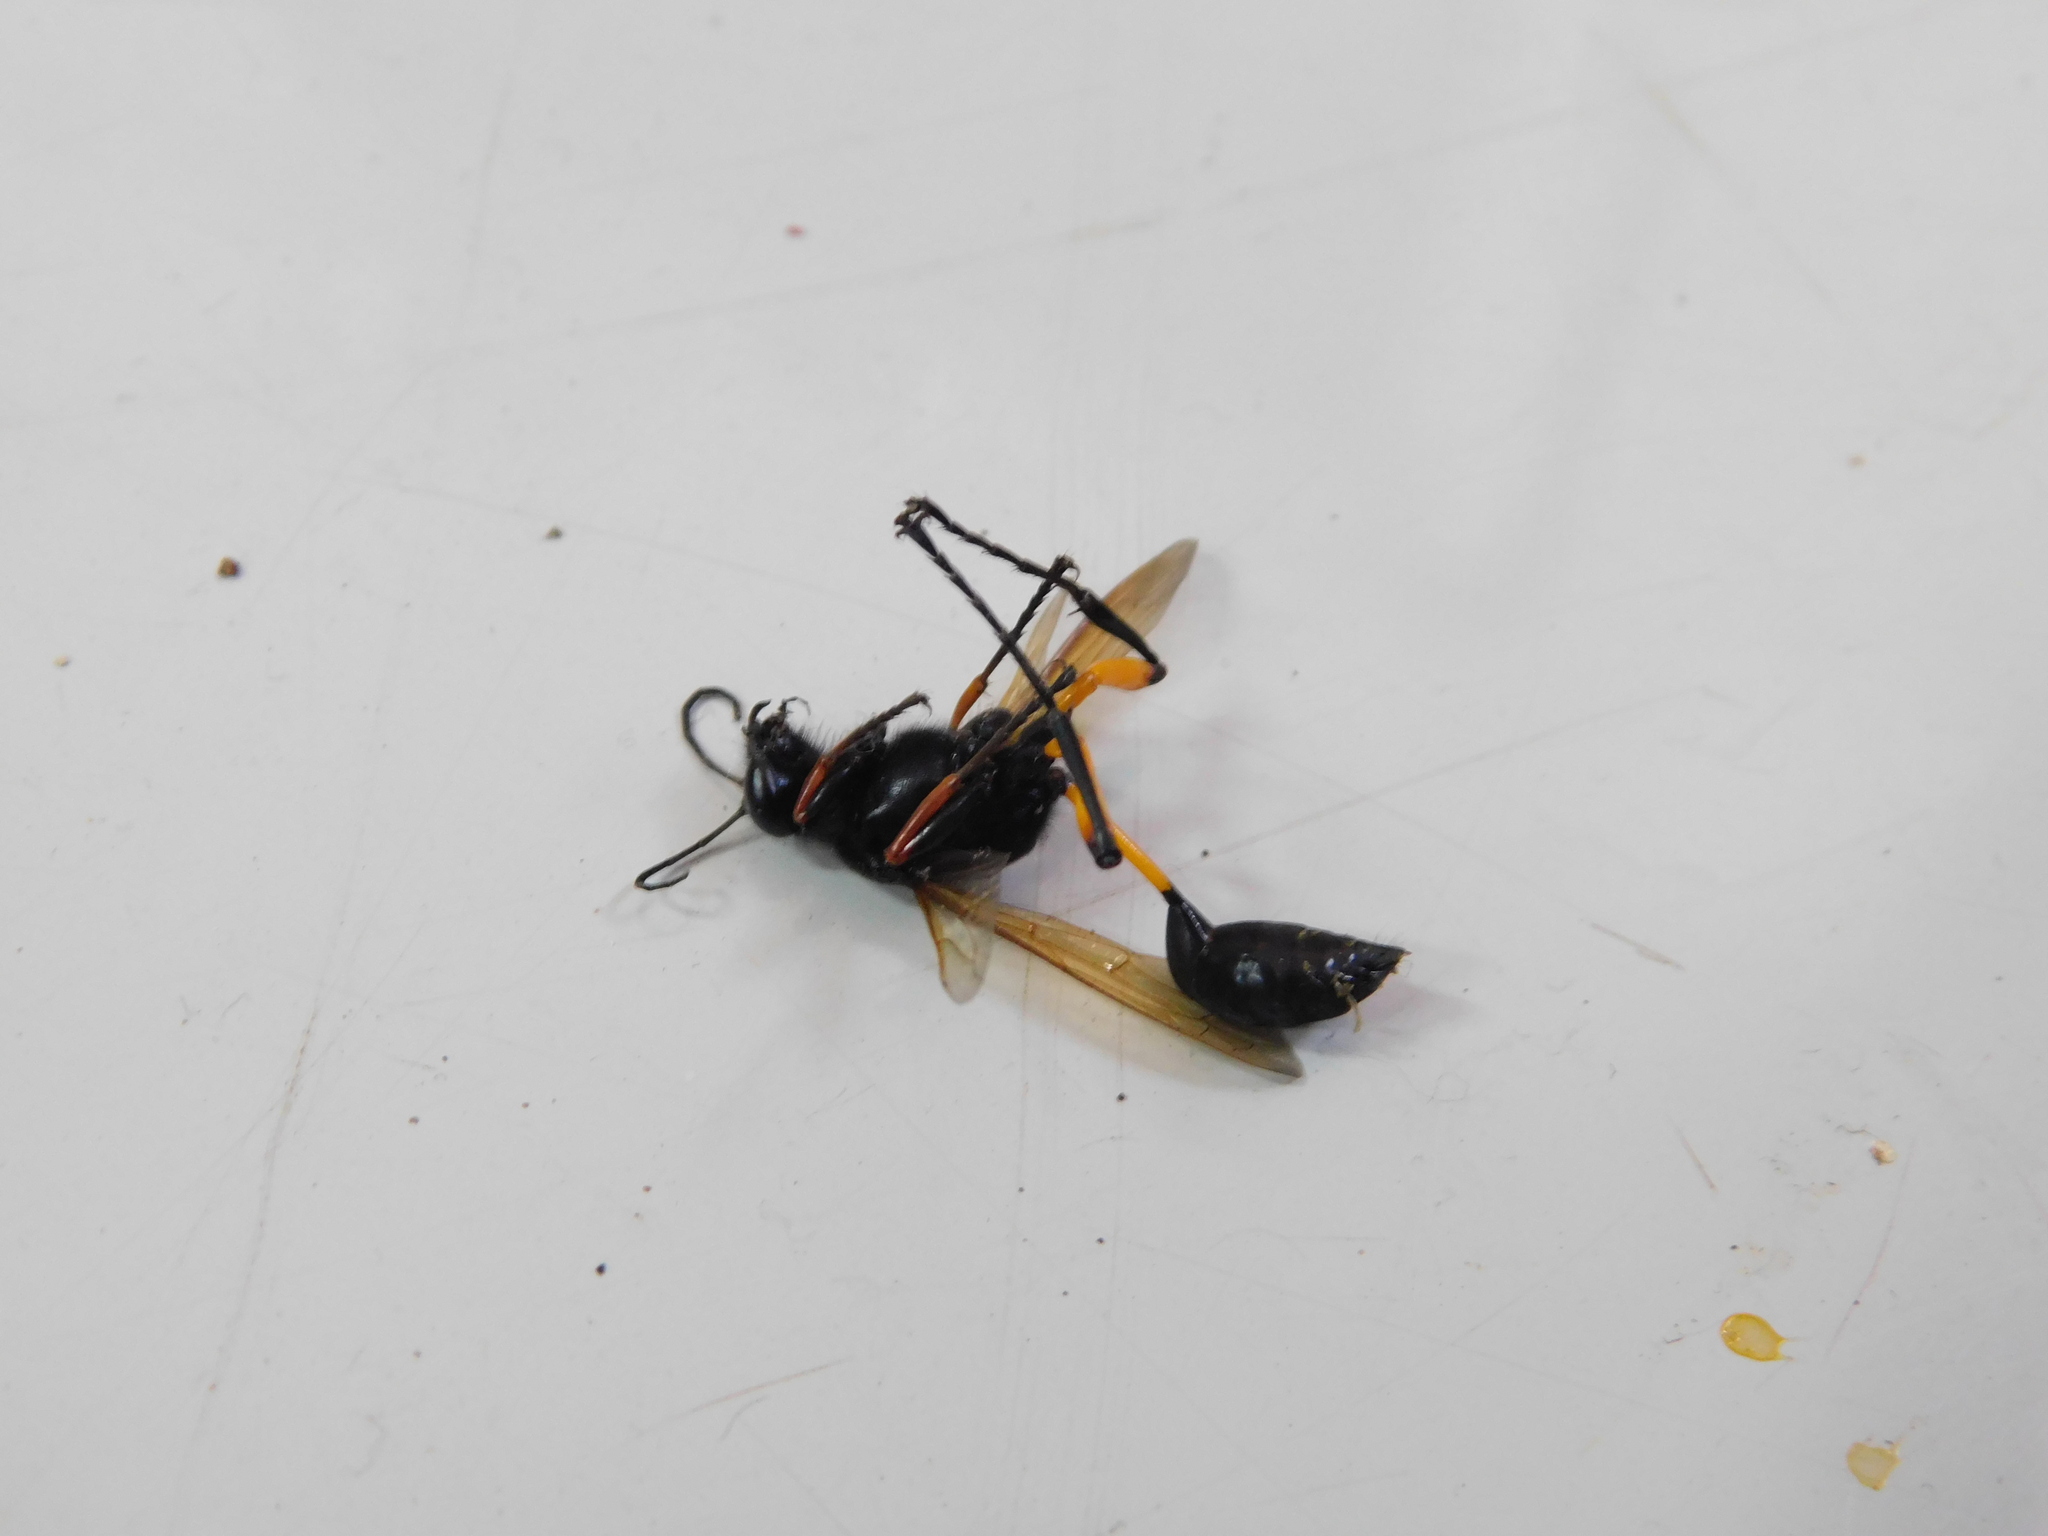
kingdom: Animalia
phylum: Arthropoda
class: Insecta
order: Hymenoptera
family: Sphecidae
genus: Sceliphron
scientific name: Sceliphron javanum
